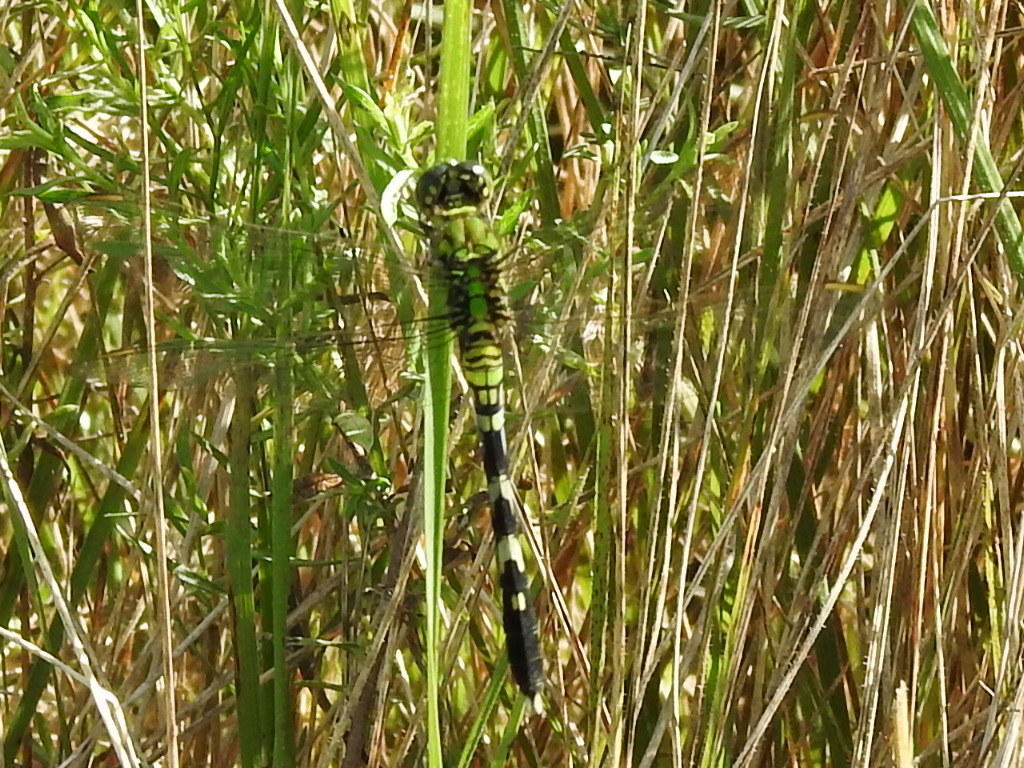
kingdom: Animalia
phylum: Arthropoda
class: Insecta
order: Odonata
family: Libellulidae
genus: Erythemis
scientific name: Erythemis simplicicollis
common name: Eastern pondhawk
